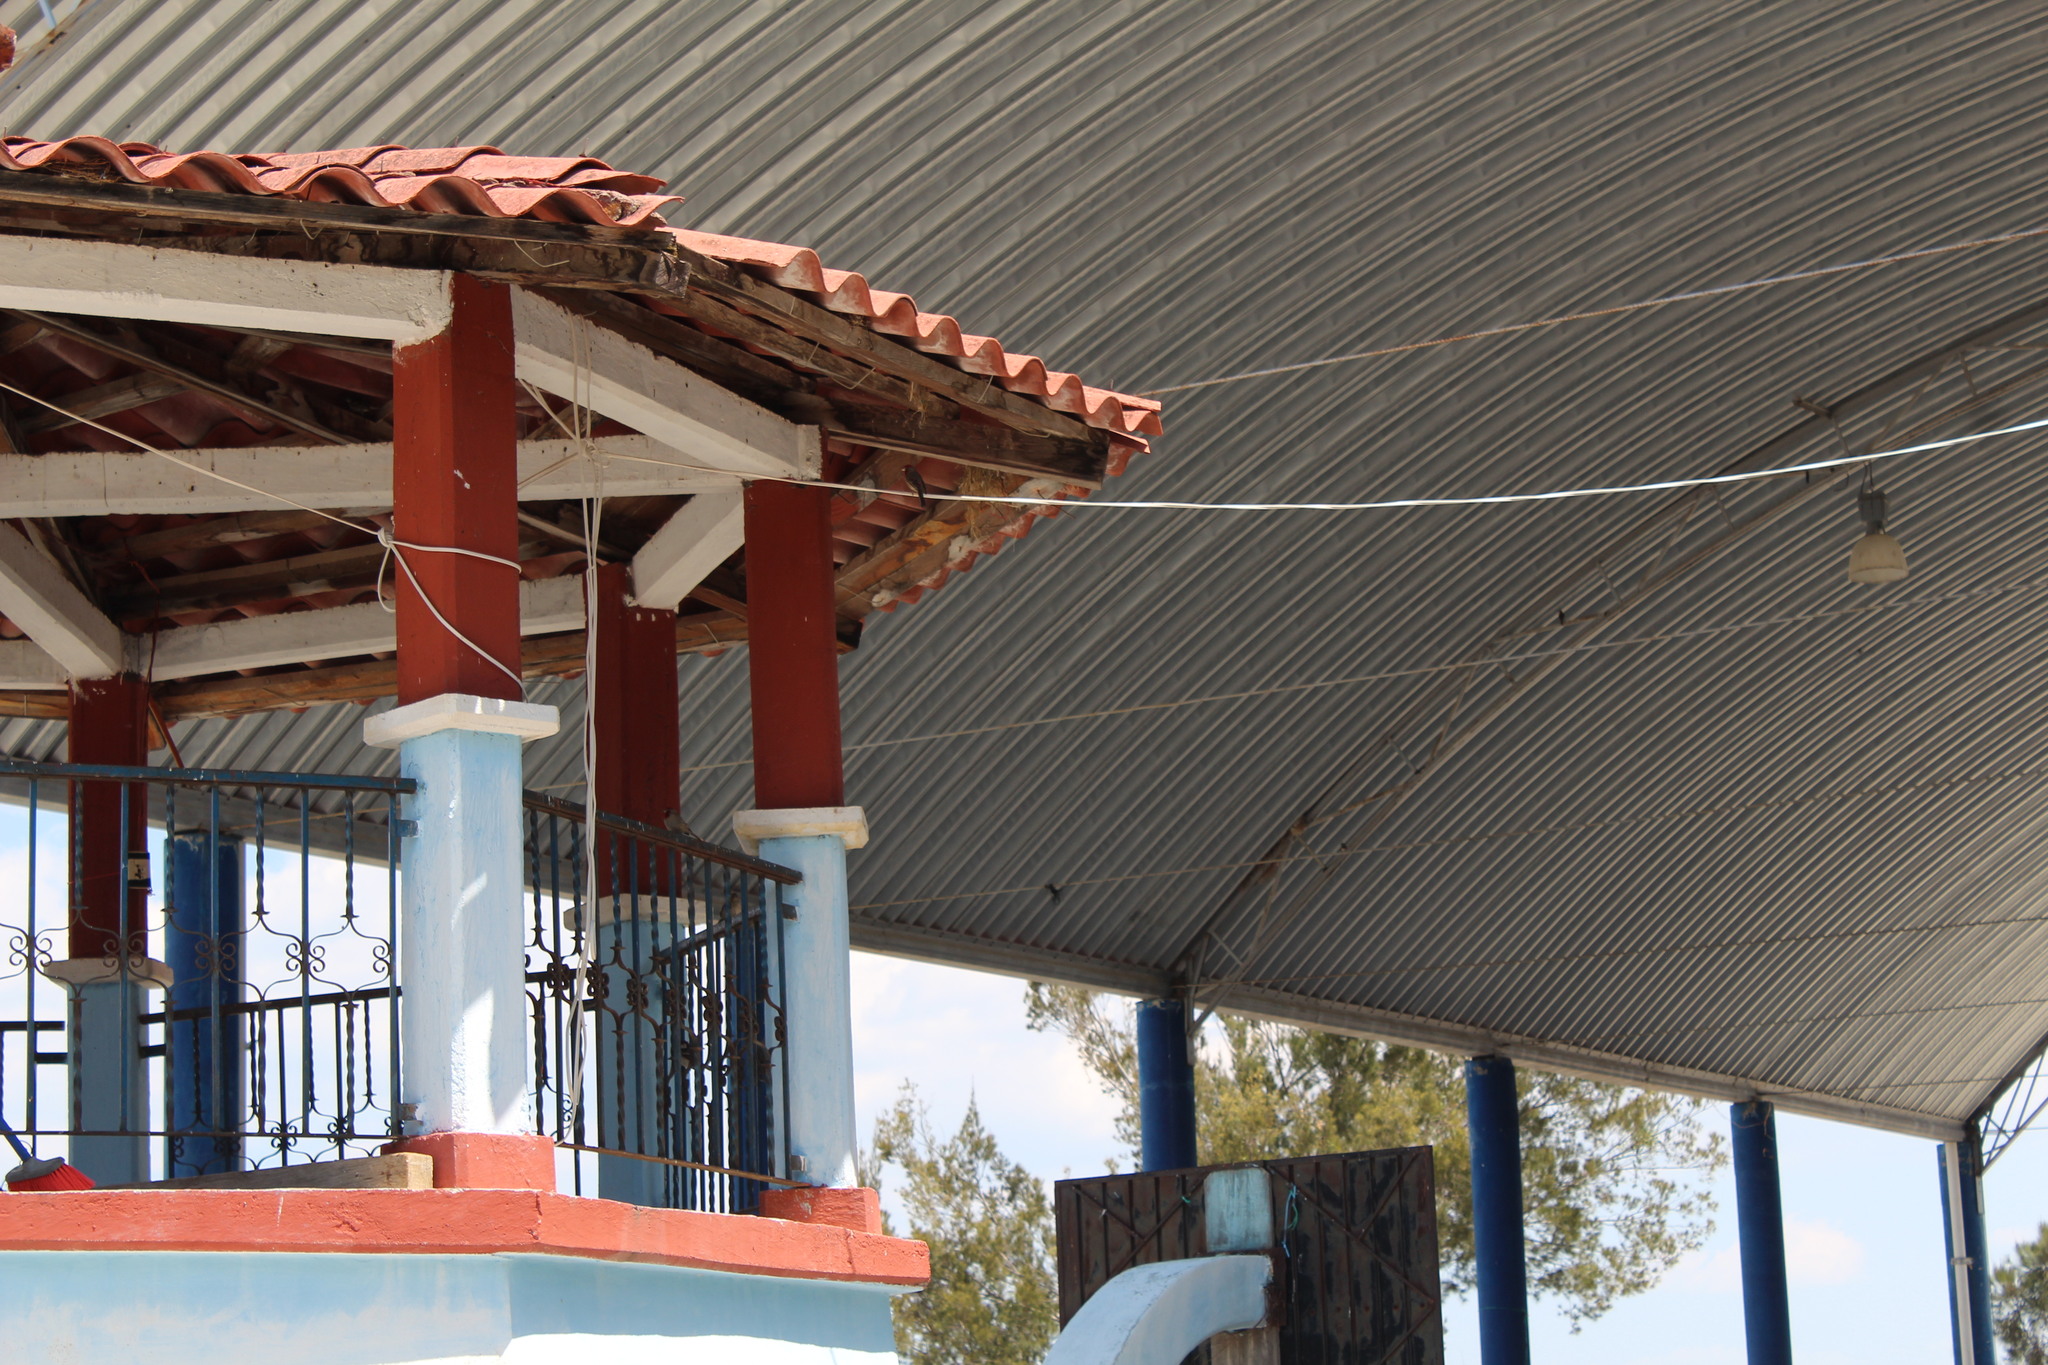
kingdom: Animalia
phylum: Chordata
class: Aves
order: Passeriformes
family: Fringillidae
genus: Haemorhous
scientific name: Haemorhous mexicanus
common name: House finch
